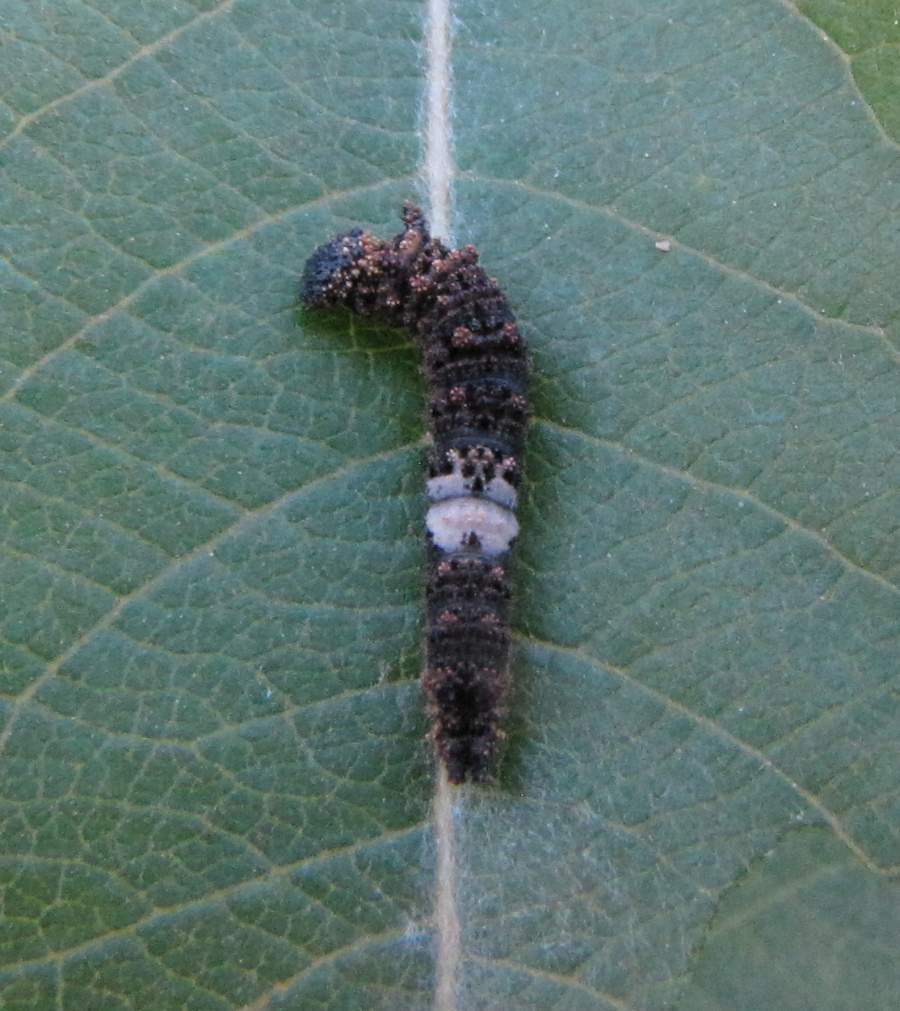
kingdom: Animalia
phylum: Arthropoda
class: Insecta
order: Lepidoptera
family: Nymphalidae
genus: Limenitis
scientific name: Limenitis
